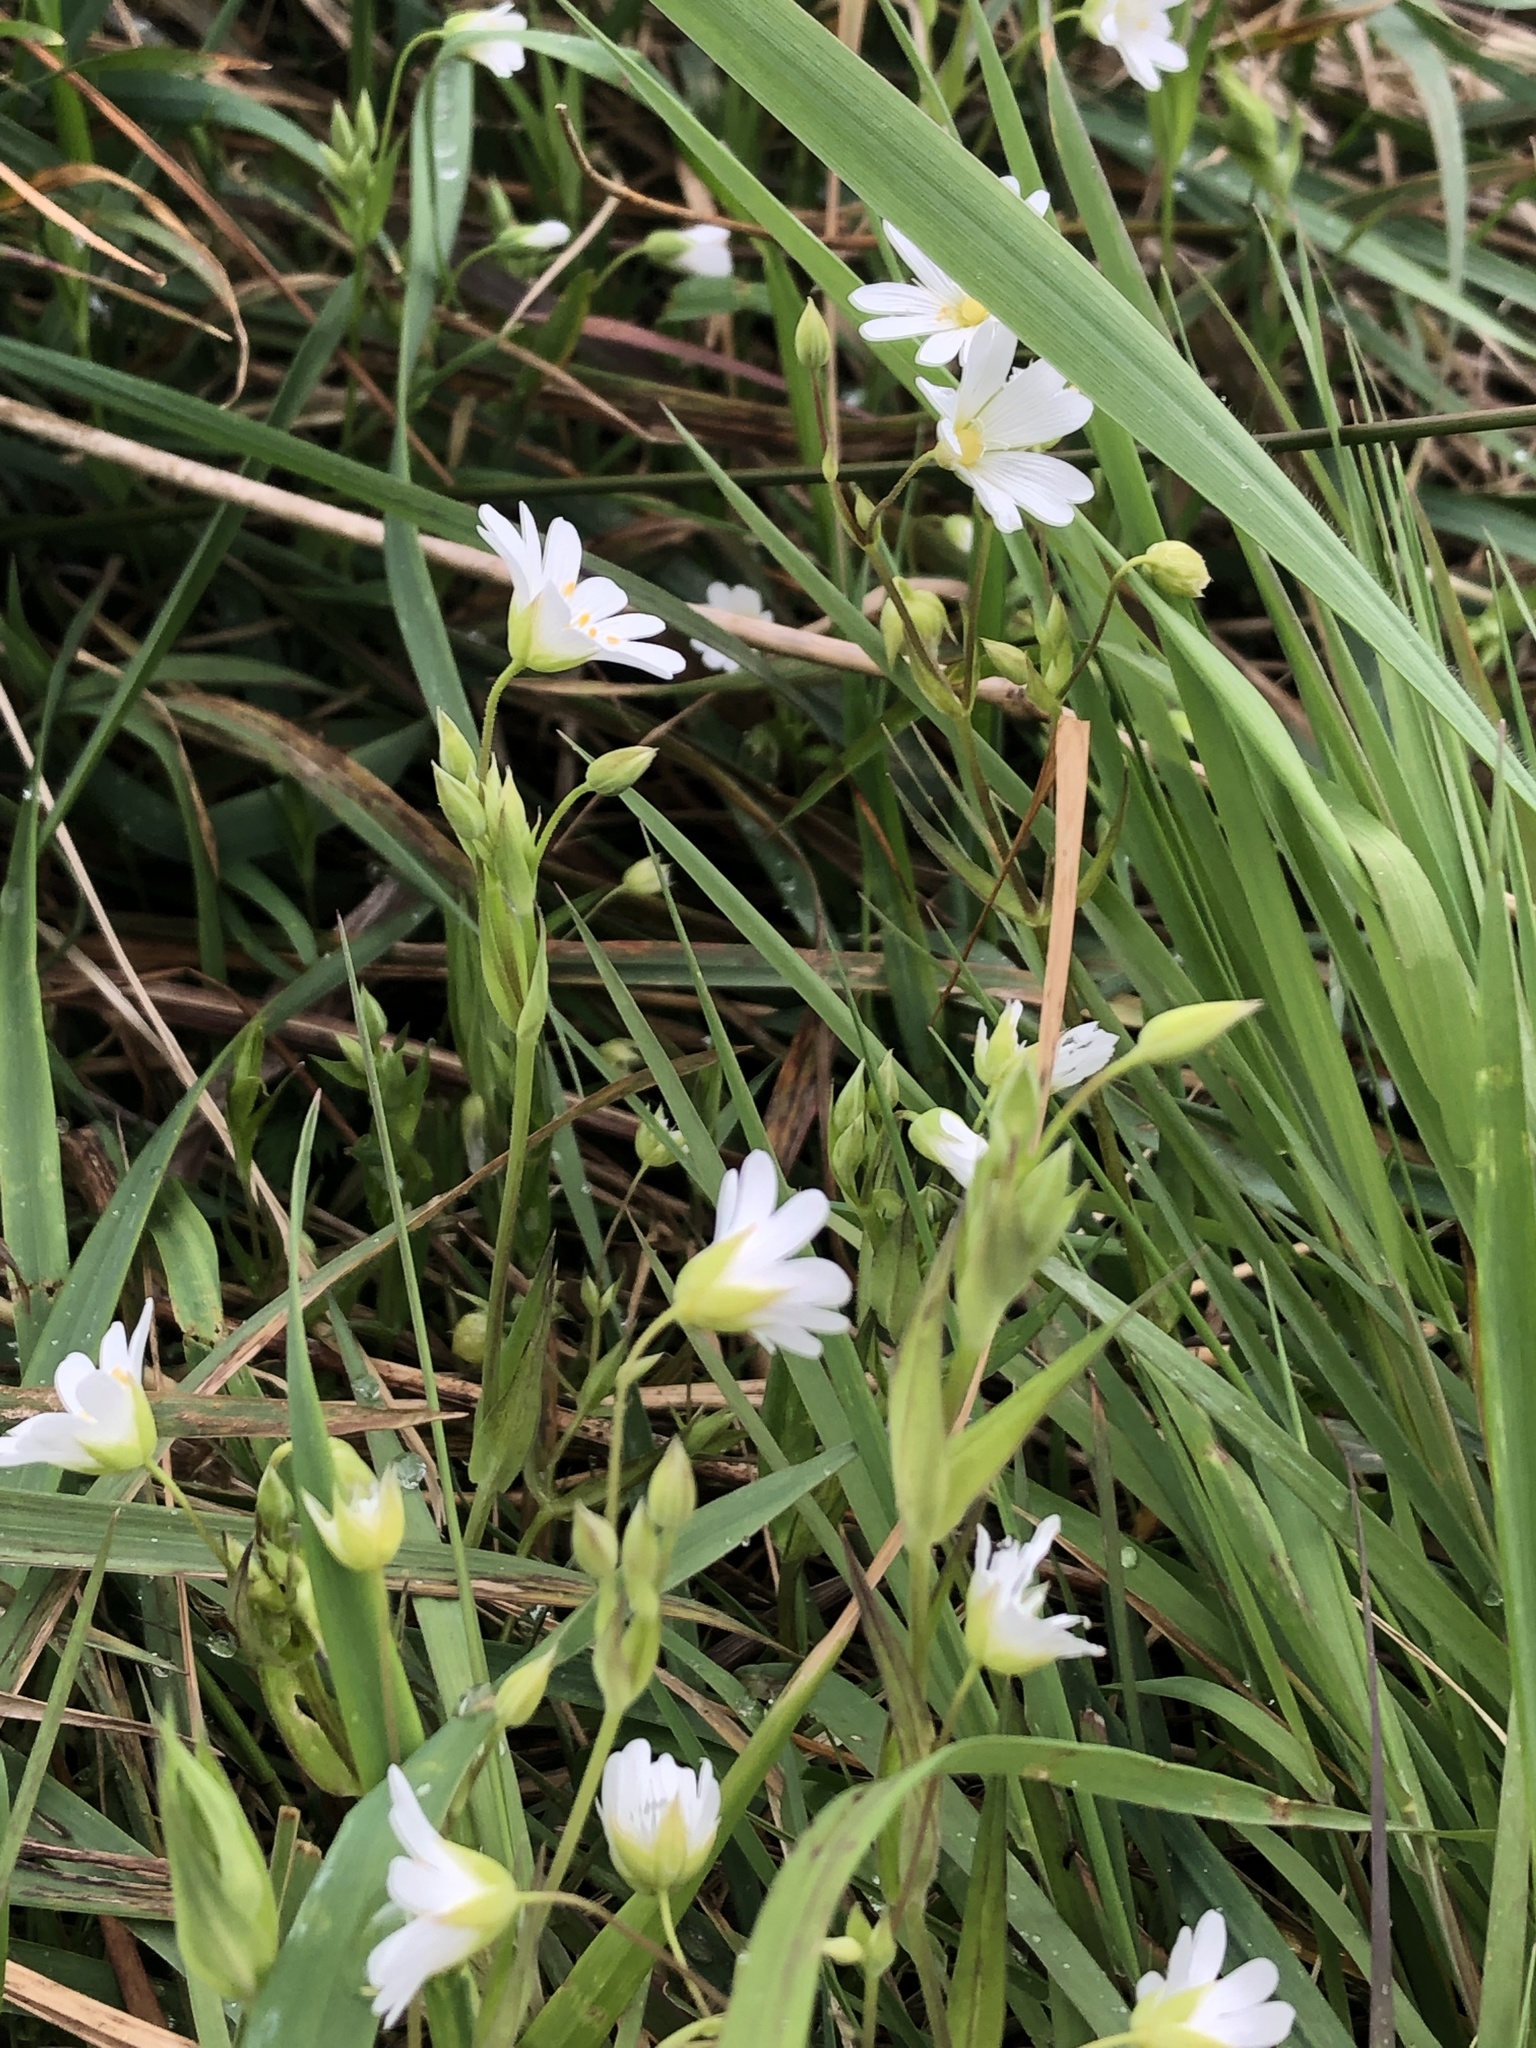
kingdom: Plantae
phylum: Tracheophyta
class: Magnoliopsida
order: Caryophyllales
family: Caryophyllaceae
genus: Rabelera
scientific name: Rabelera holostea
